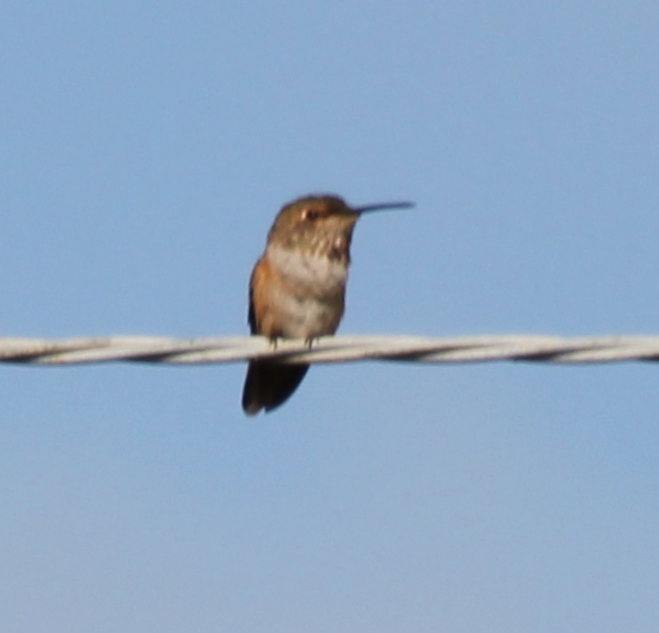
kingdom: Animalia
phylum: Chordata
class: Aves
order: Apodiformes
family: Trochilidae
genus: Selasphorus
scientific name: Selasphorus sasin
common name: Allen's hummingbird
